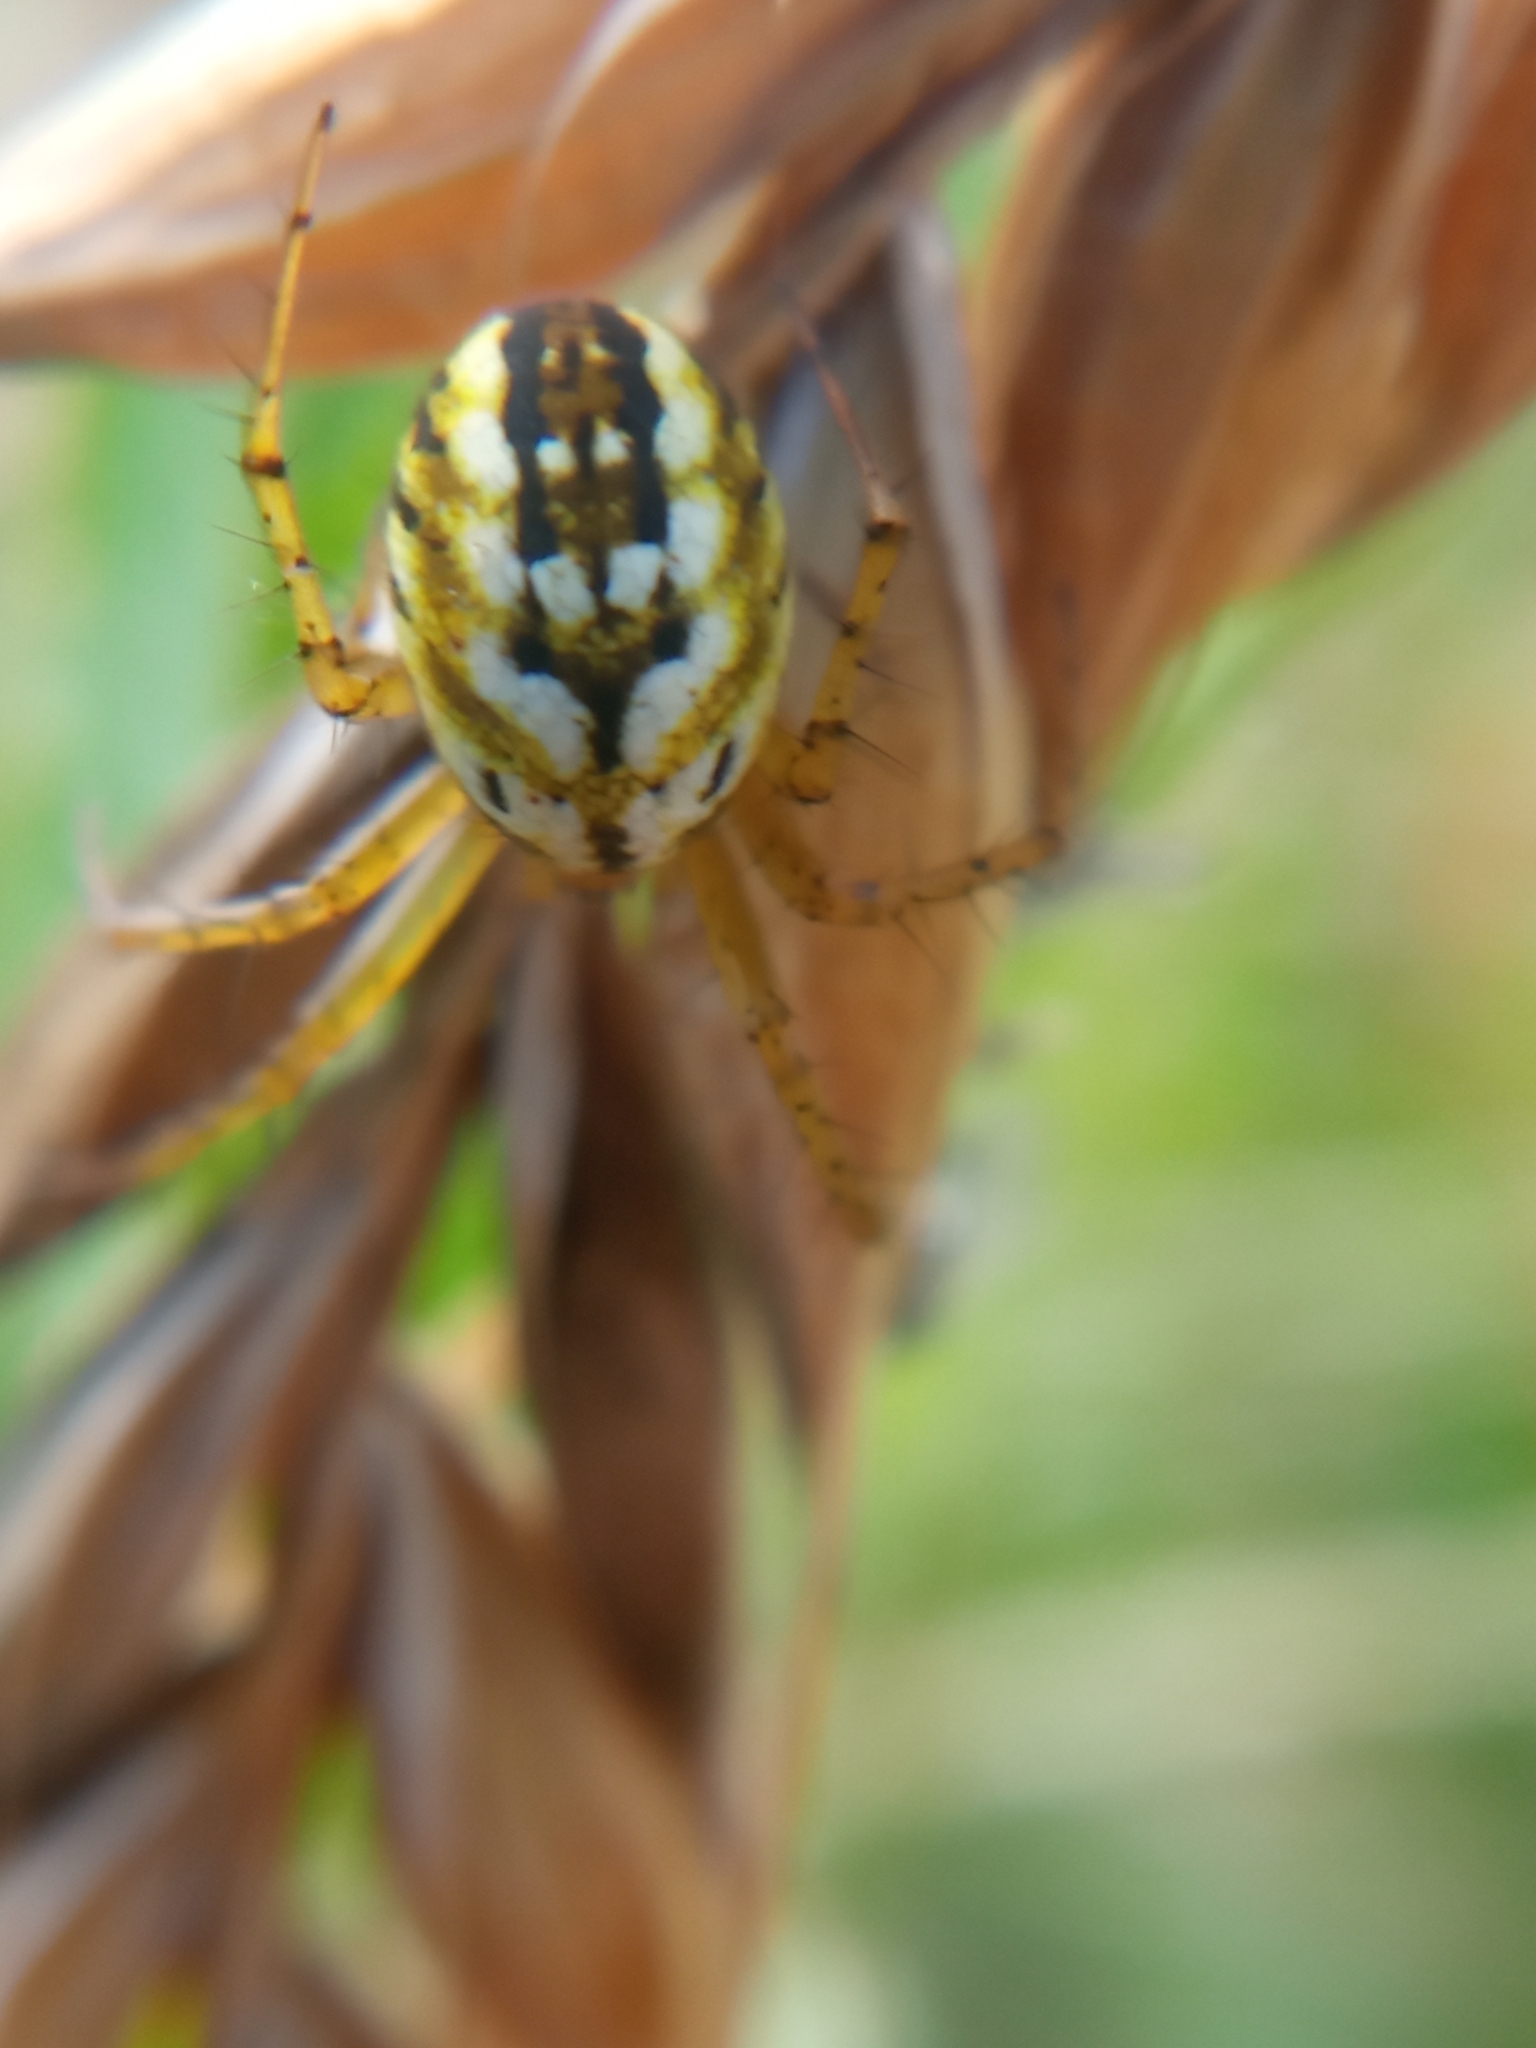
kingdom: Animalia
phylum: Arthropoda
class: Arachnida
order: Araneae
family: Araneidae
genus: Mangora
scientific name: Mangora acalypha
